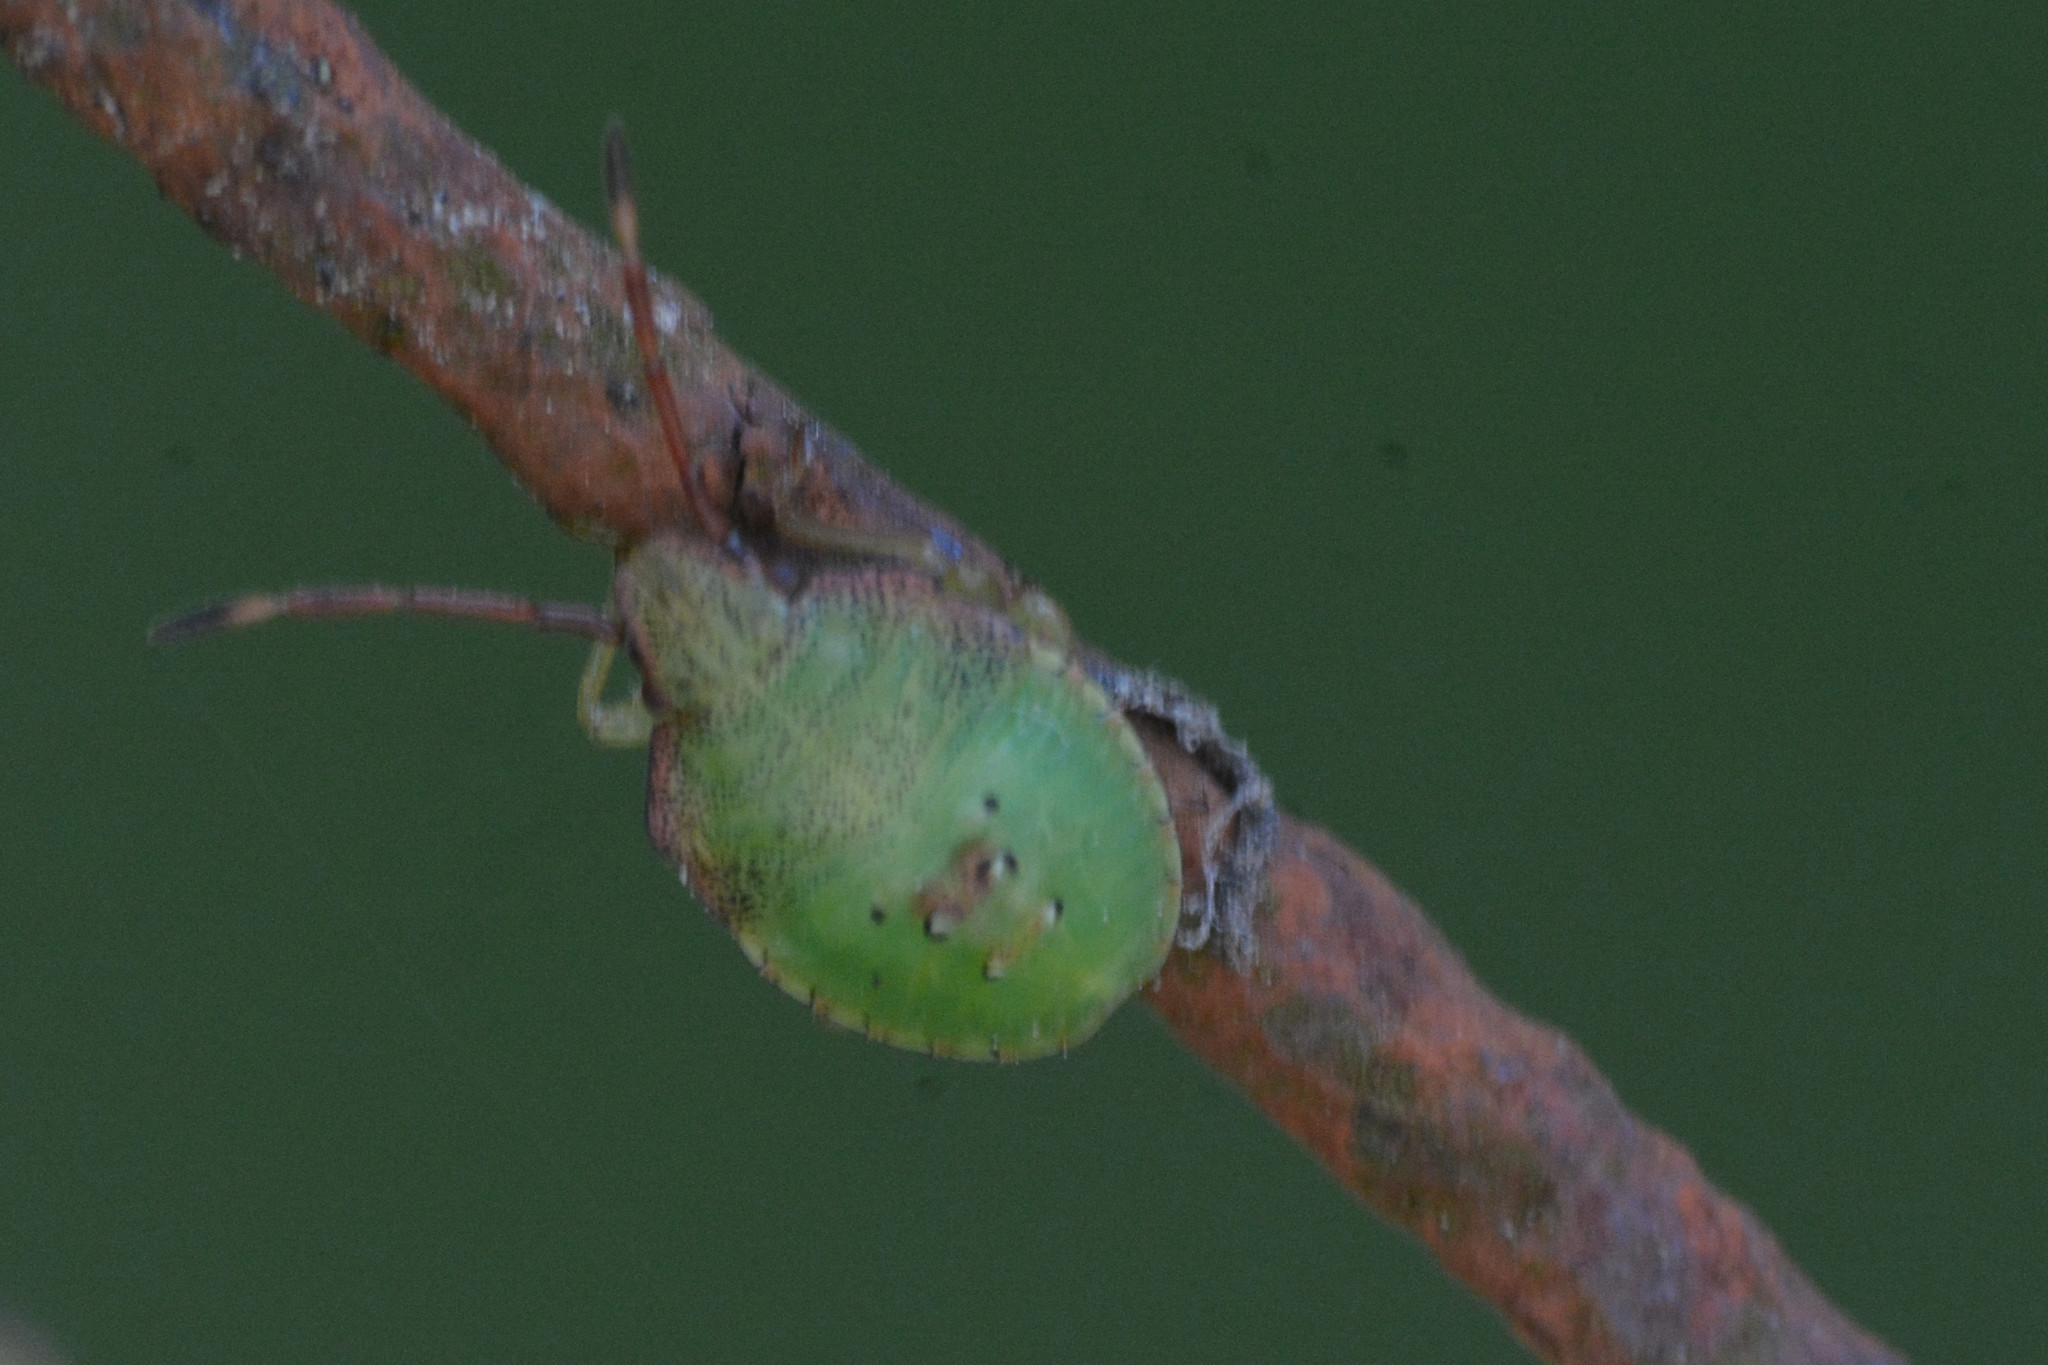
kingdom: Animalia
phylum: Arthropoda
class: Insecta
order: Hemiptera
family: Acanthosomatidae
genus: Acanthosoma
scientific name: Acanthosoma haemorrhoidale
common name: Hawthorn shieldbug
